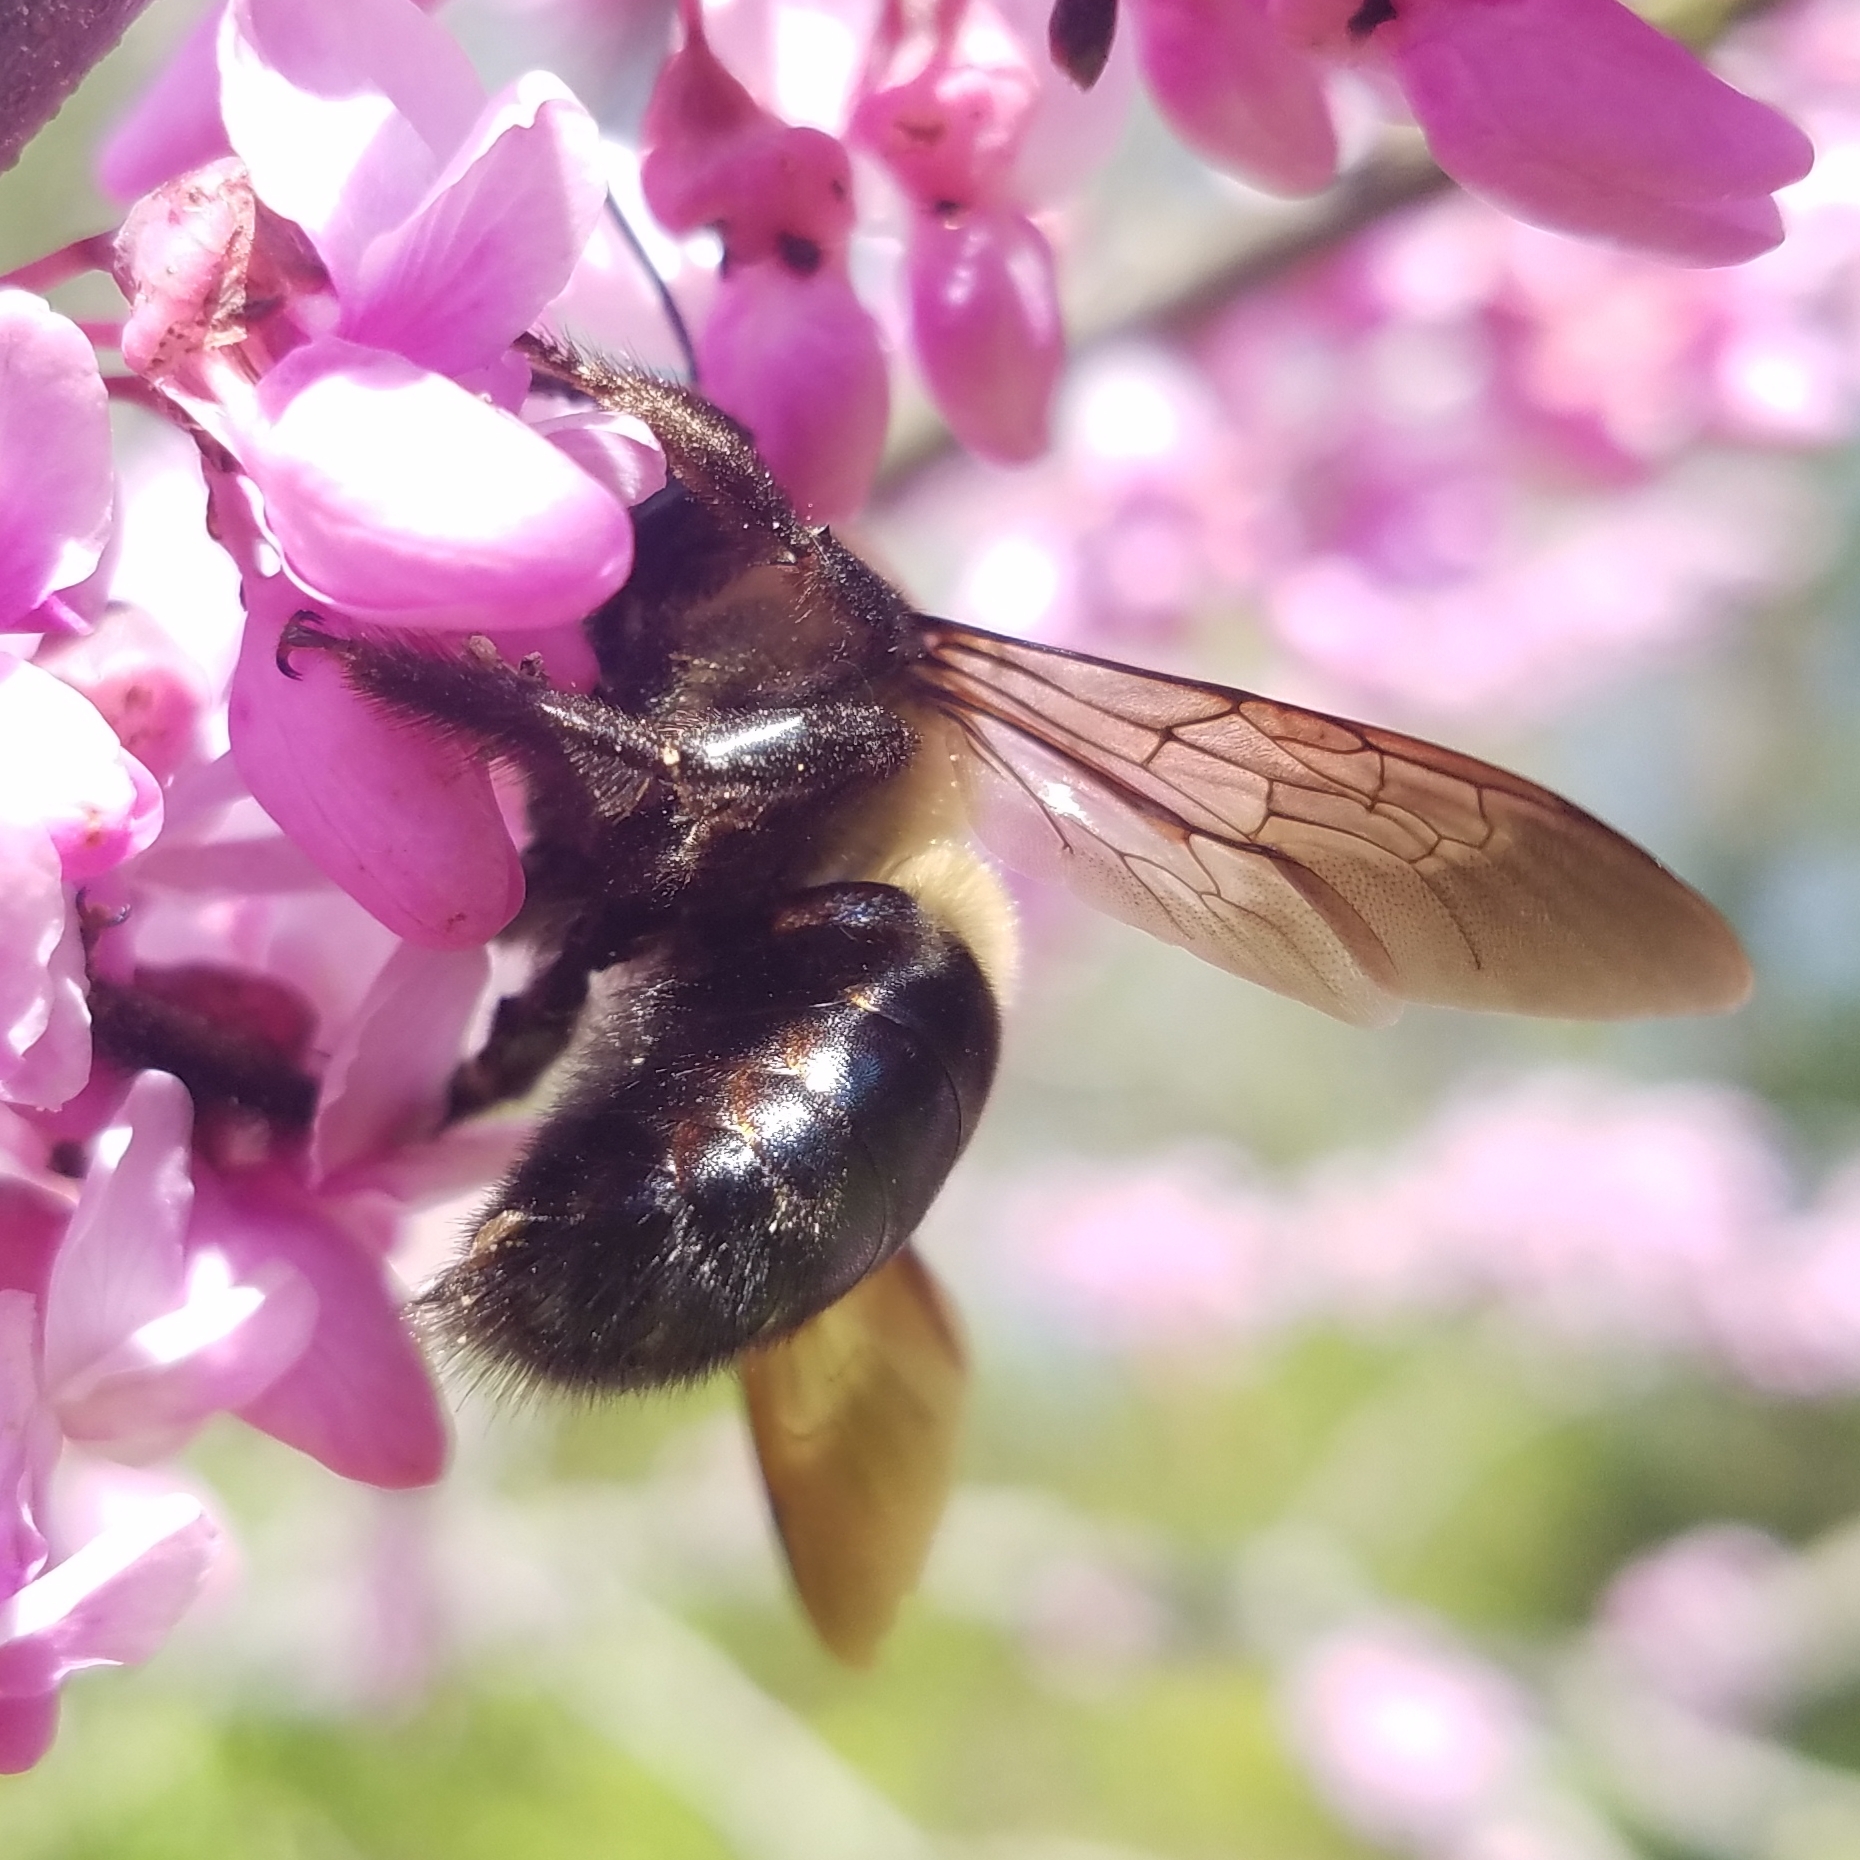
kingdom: Animalia
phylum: Arthropoda
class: Insecta
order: Hymenoptera
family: Apidae
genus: Xylocopa
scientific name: Xylocopa virginica
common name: Carpenter bee
